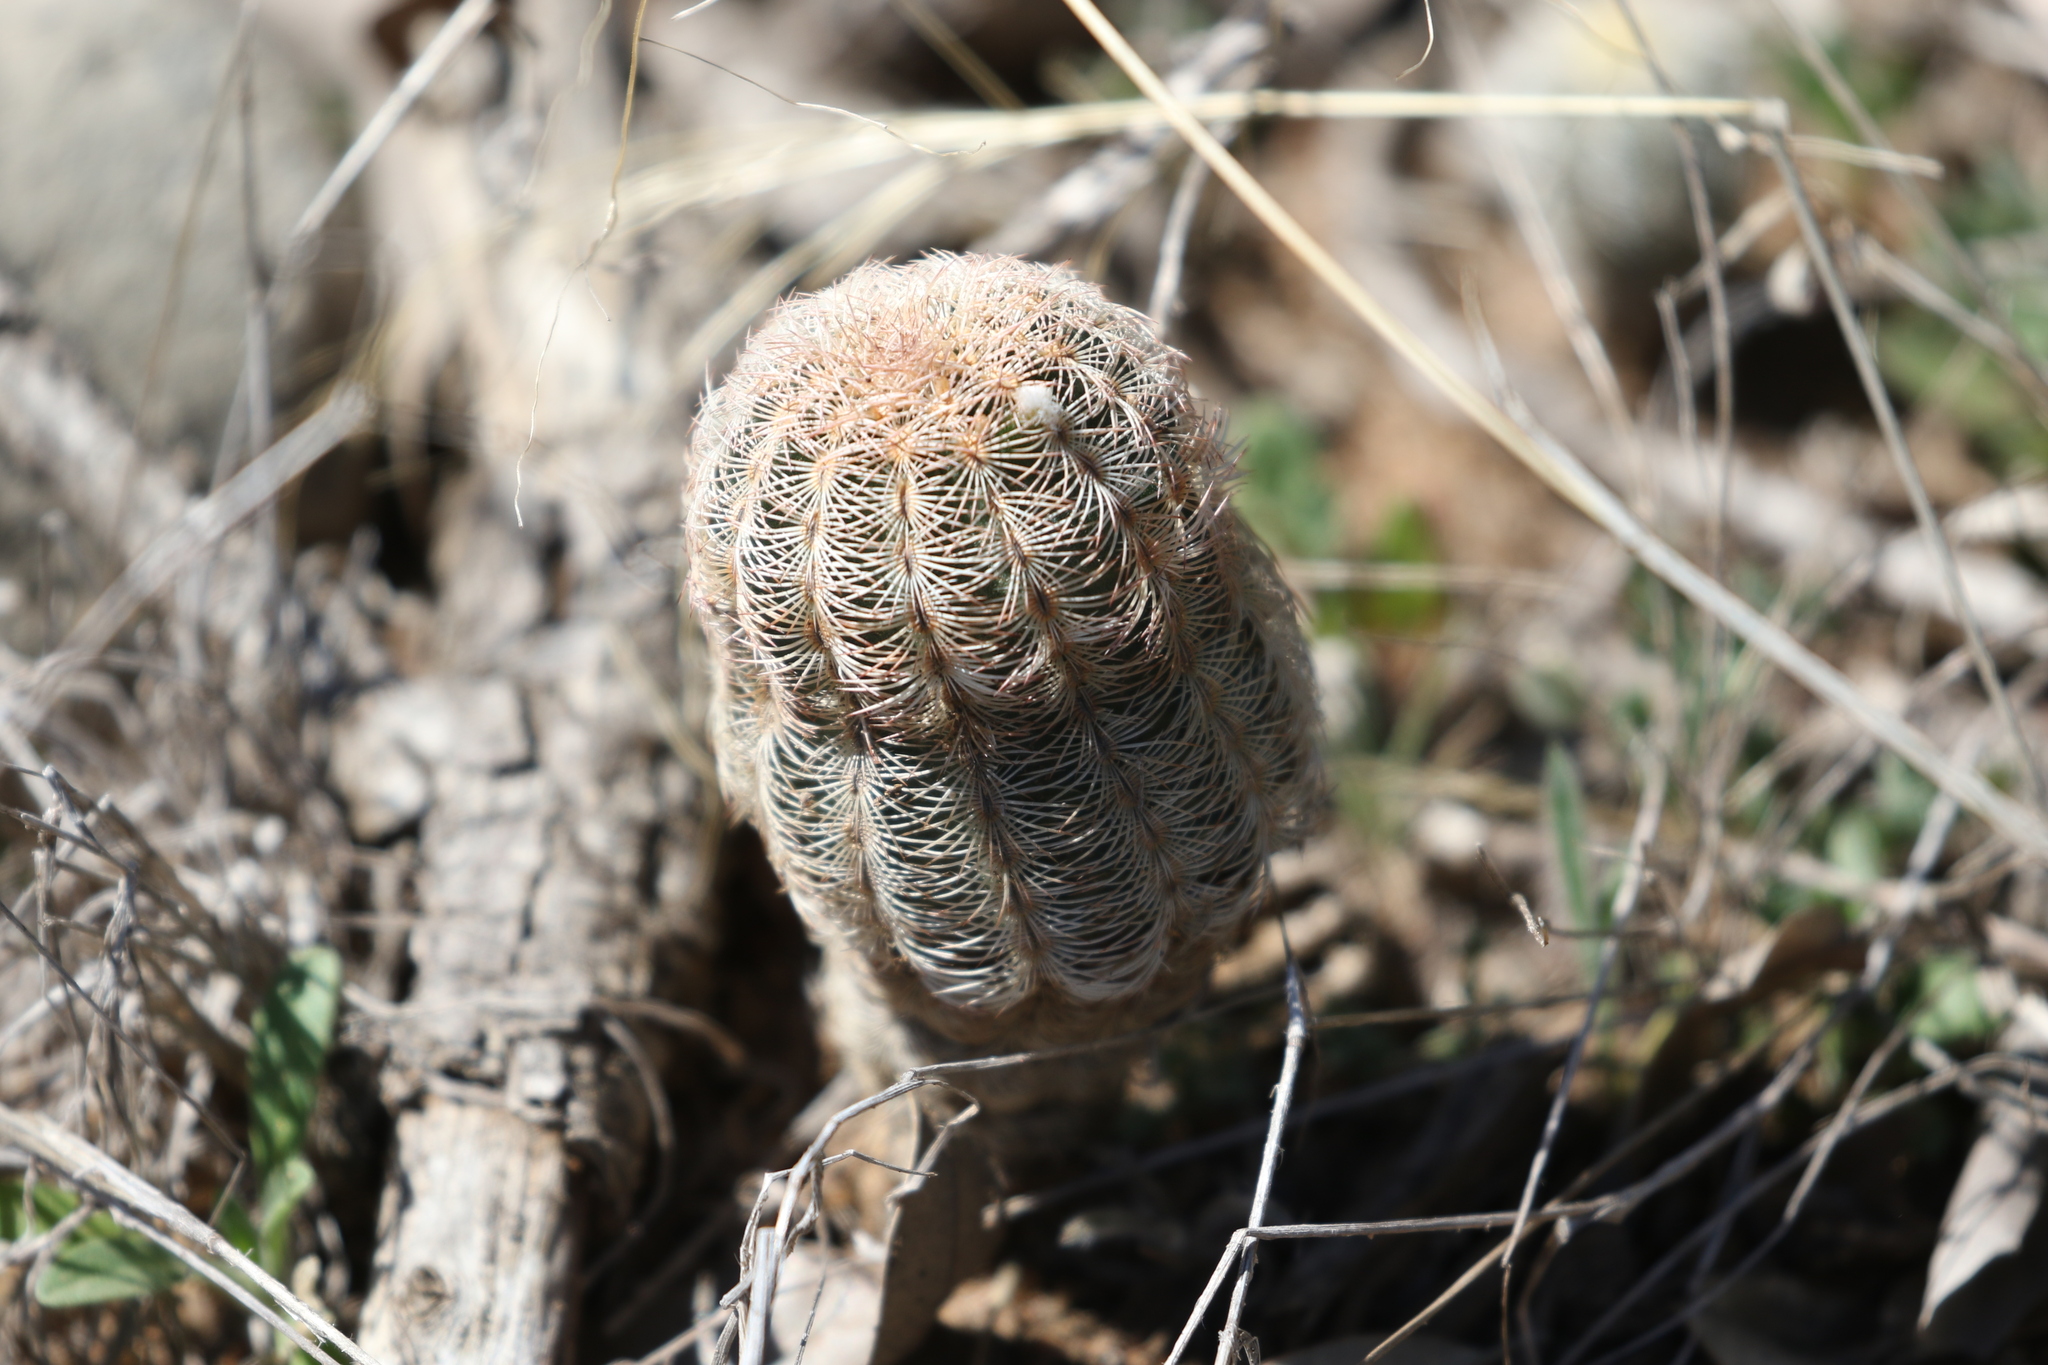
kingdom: Plantae
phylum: Tracheophyta
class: Magnoliopsida
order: Caryophyllales
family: Cactaceae
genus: Echinocereus
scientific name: Echinocereus reichenbachii
